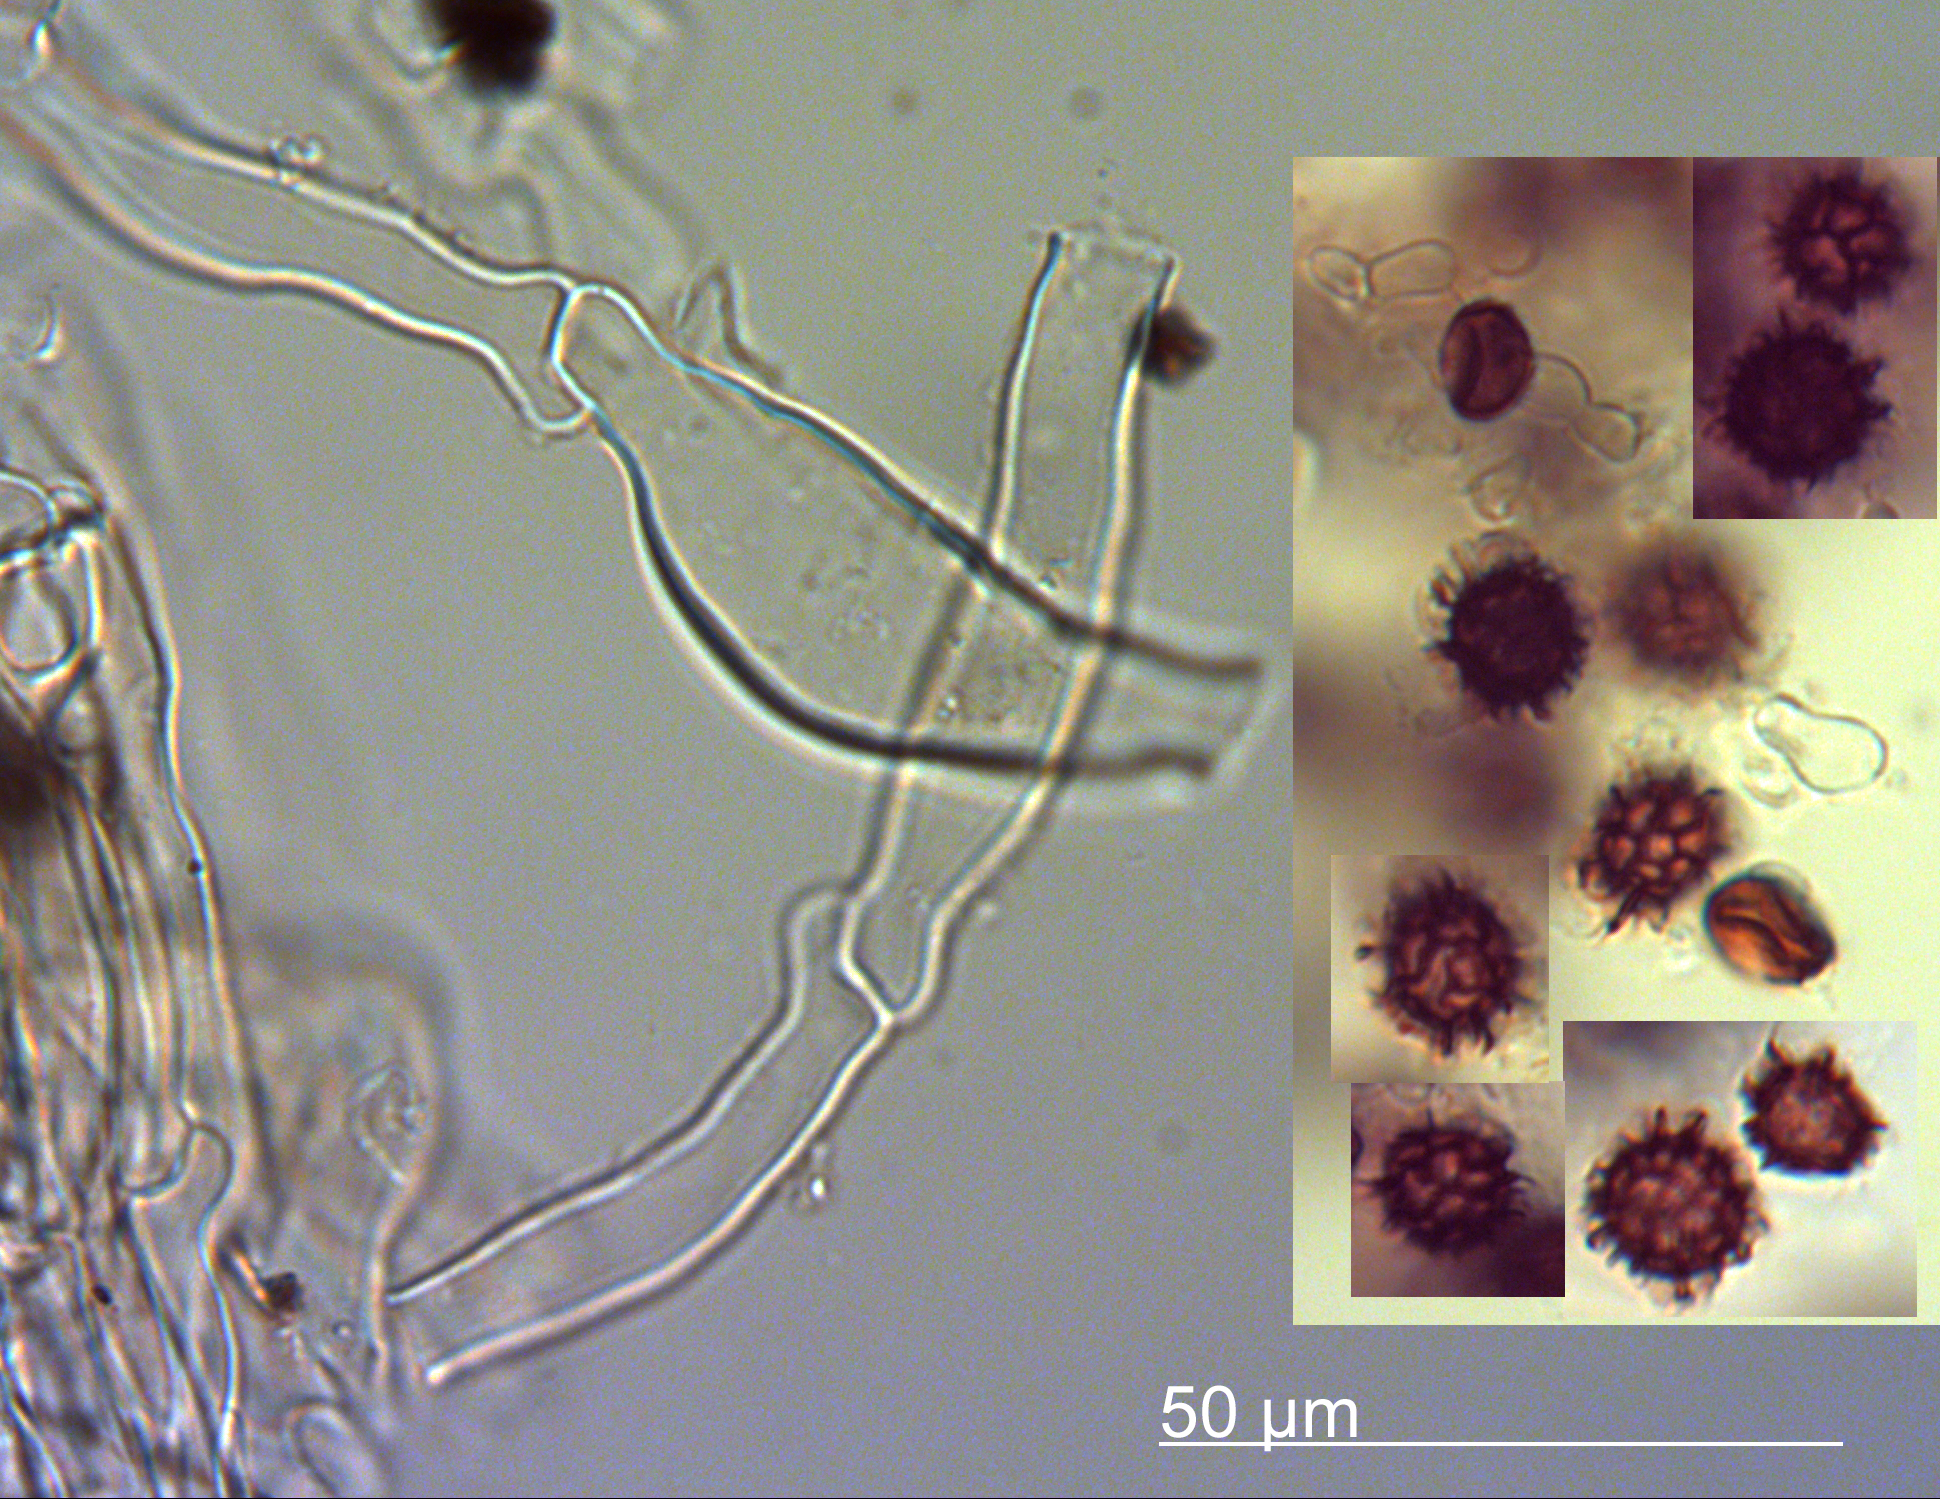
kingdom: Fungi
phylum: Basidiomycota
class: Agaricomycetes
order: Boletales
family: Sclerodermataceae
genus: Scleroderma
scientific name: Scleroderma bovista
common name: Potato earthball
